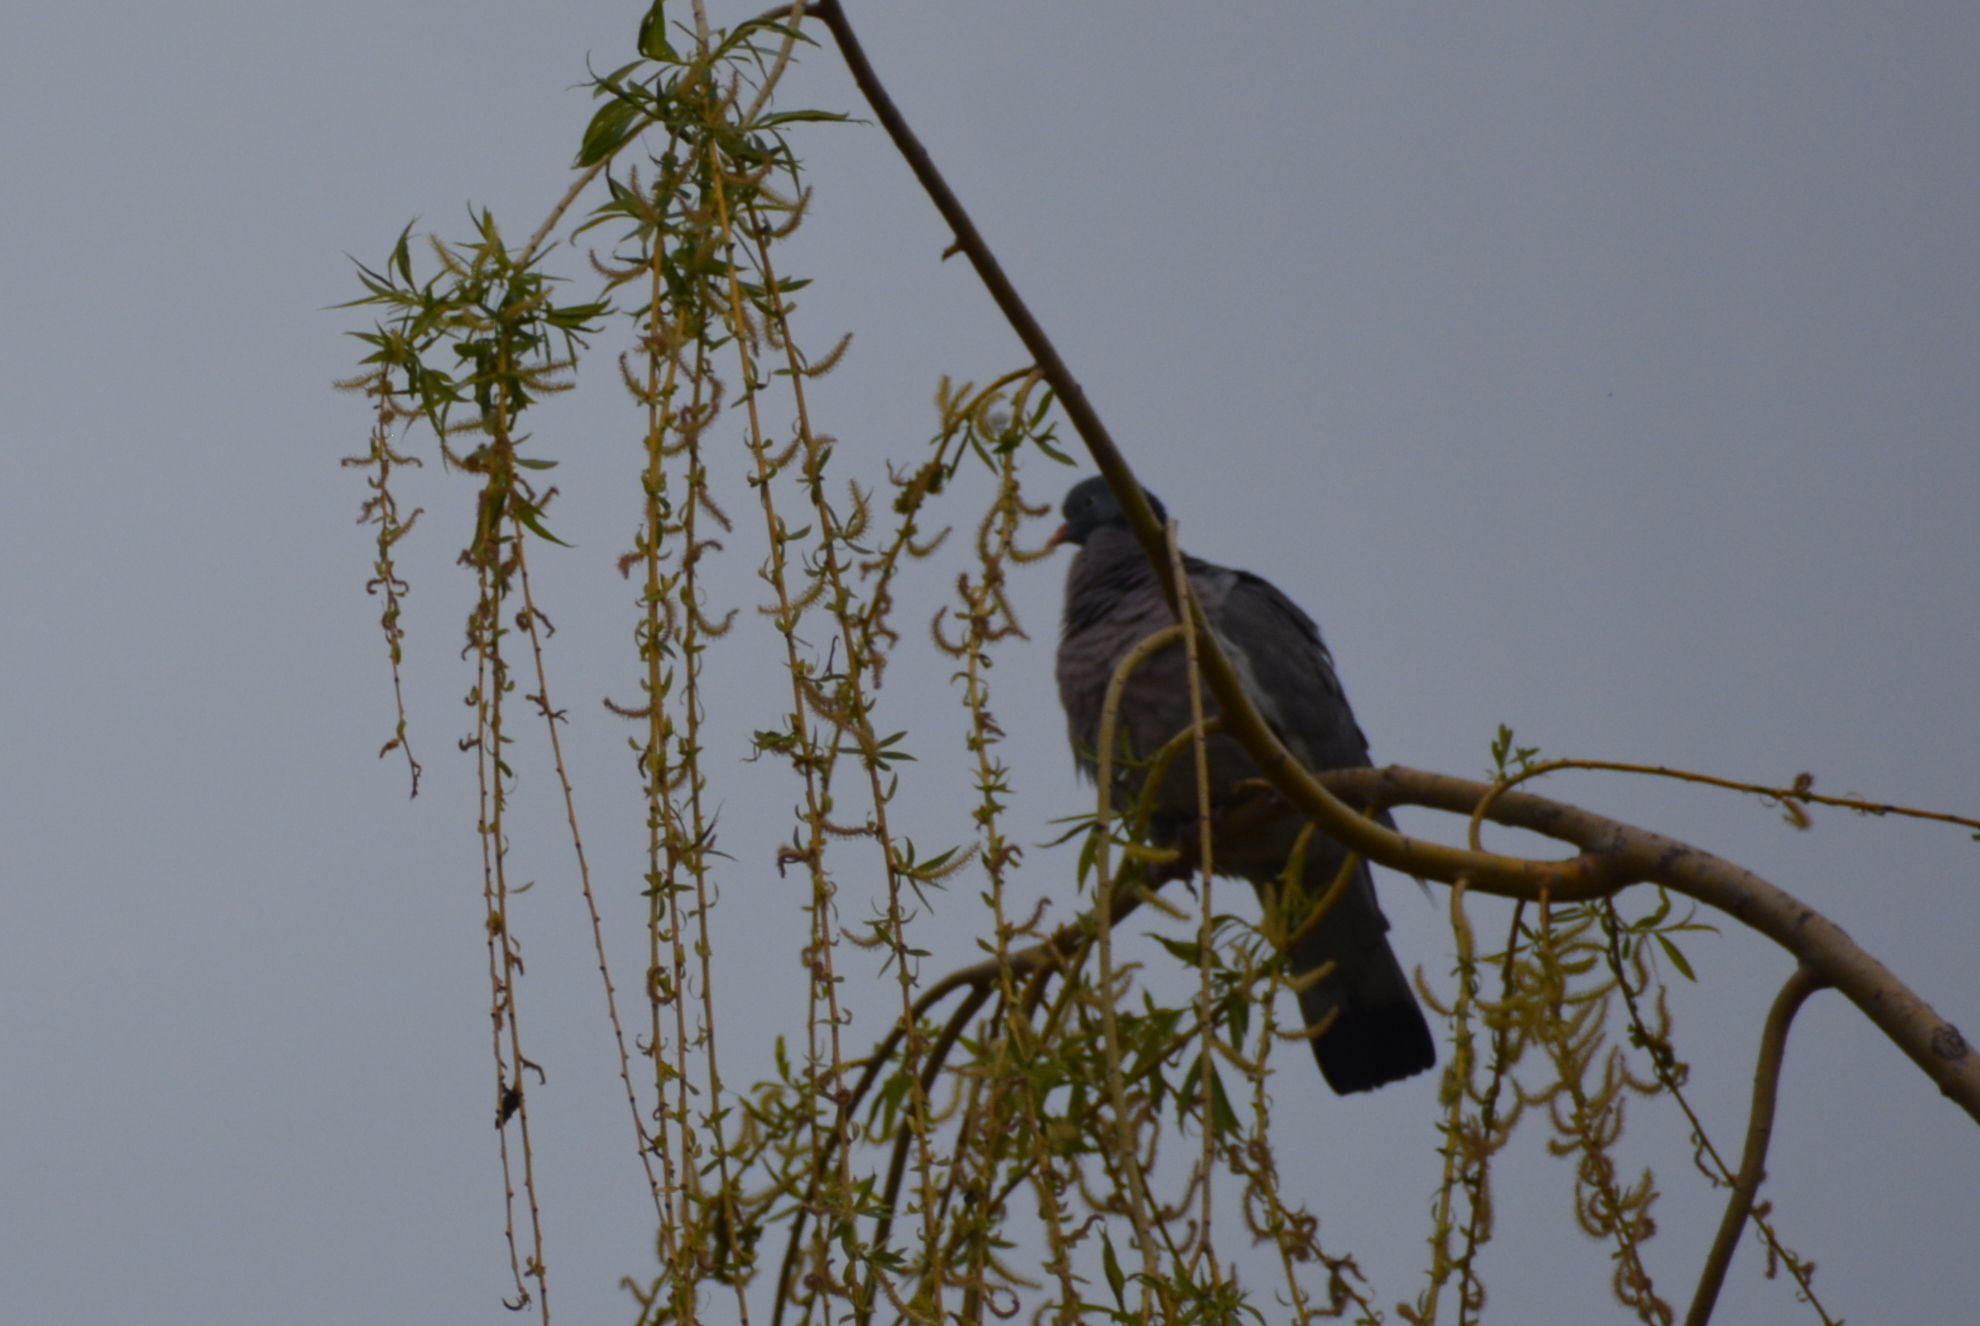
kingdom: Animalia
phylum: Chordata
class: Aves
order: Columbiformes
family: Columbidae
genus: Columba
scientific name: Columba palumbus
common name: Common wood pigeon
